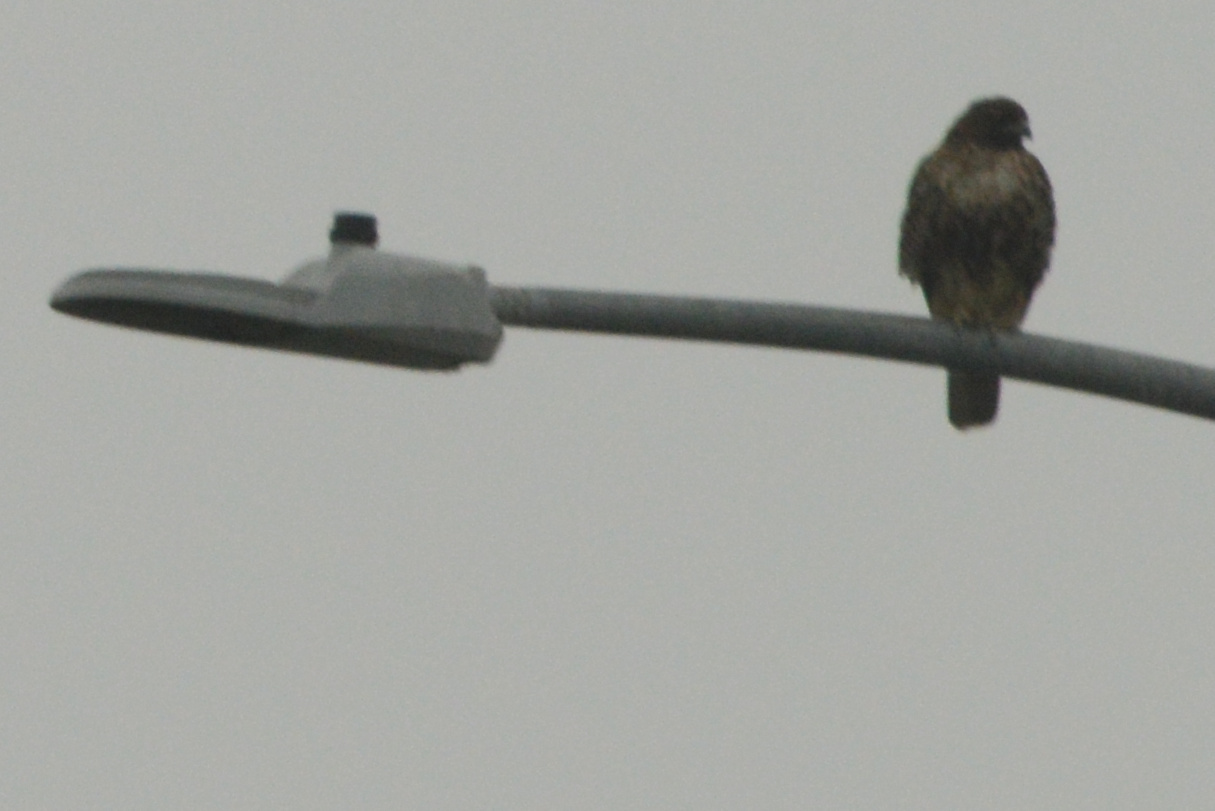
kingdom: Animalia
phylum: Chordata
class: Aves
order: Accipitriformes
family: Accipitridae
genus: Buteo
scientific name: Buteo jamaicensis
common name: Red-tailed hawk
